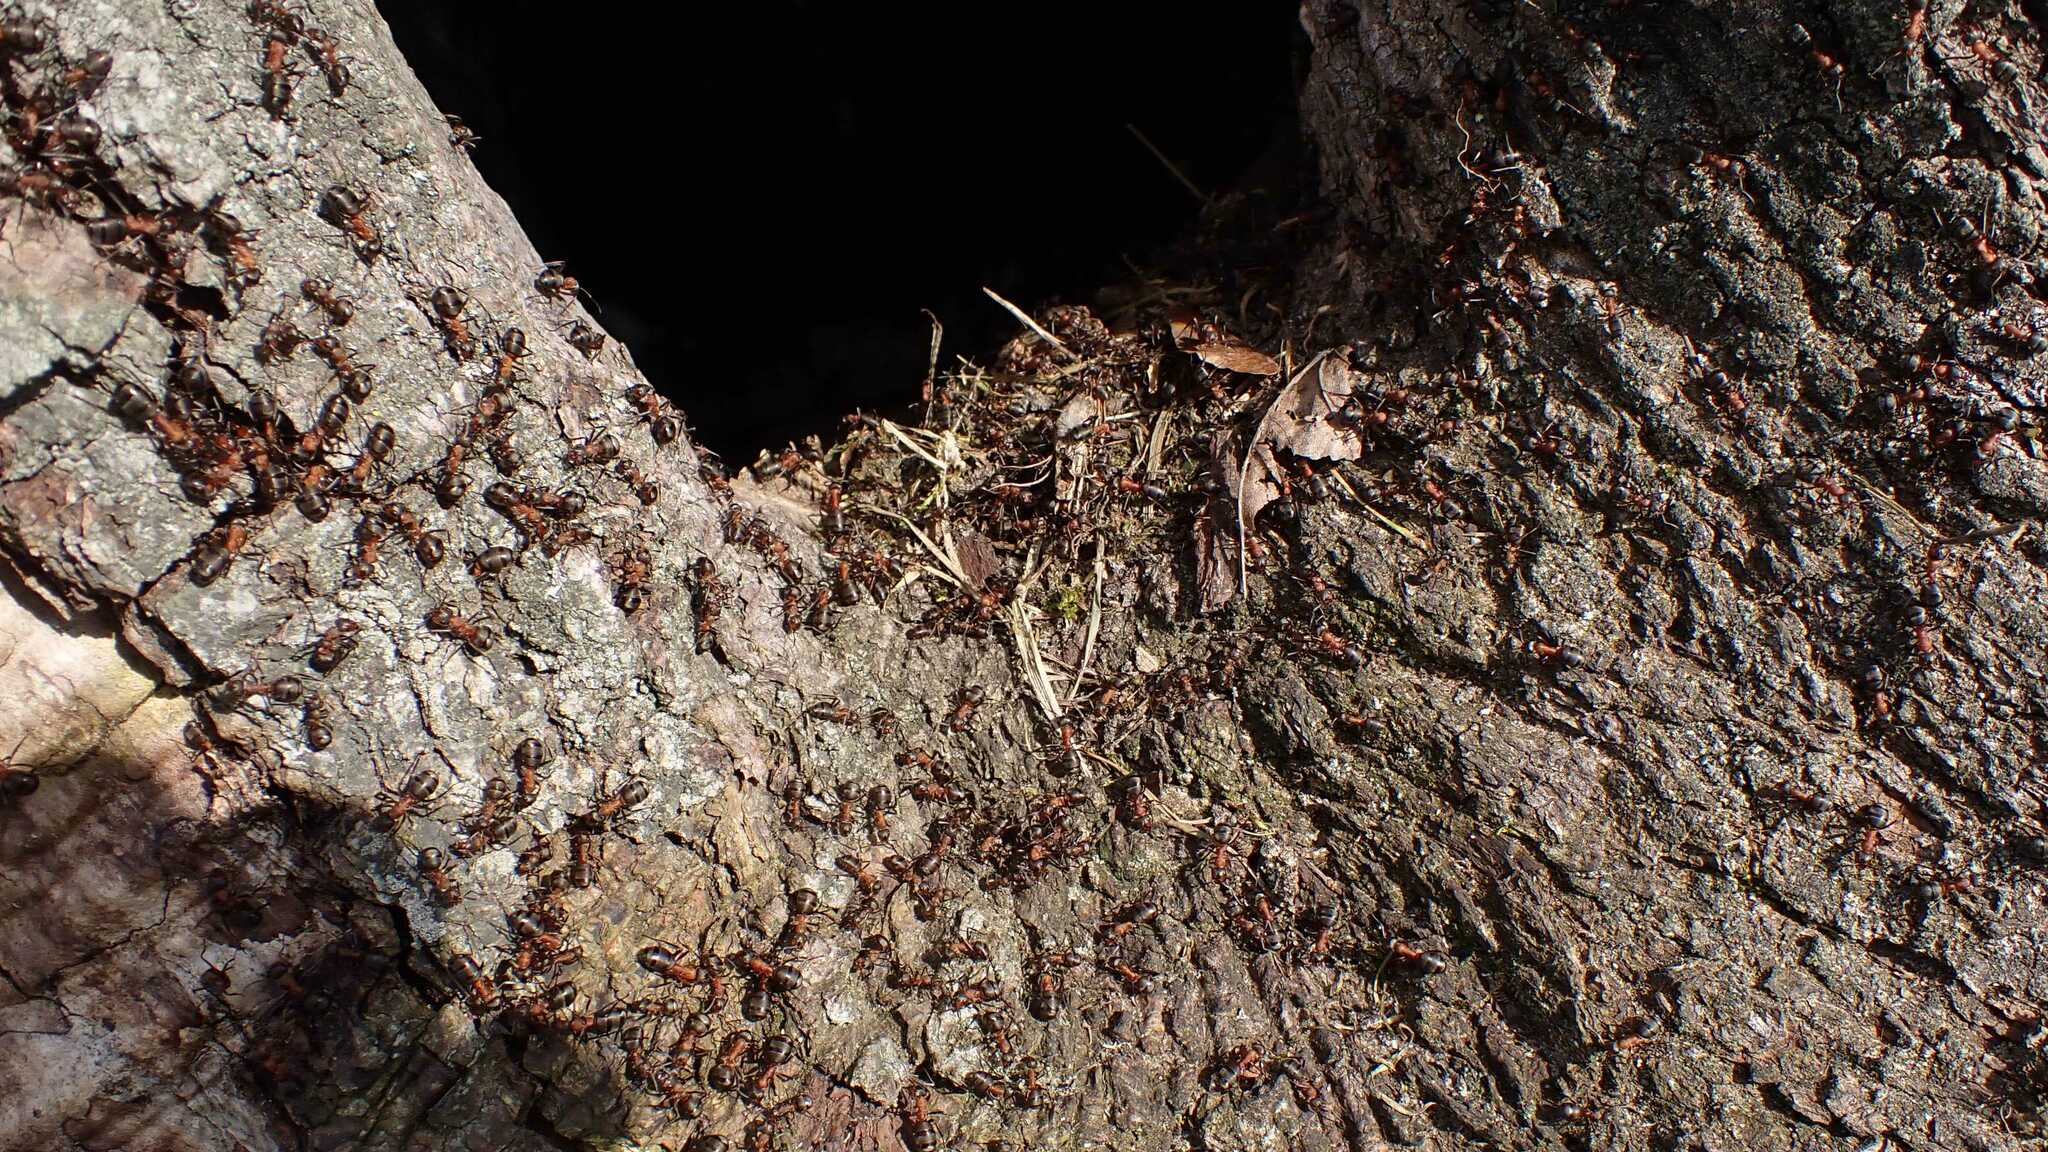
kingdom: Animalia
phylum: Arthropoda
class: Insecta
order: Hymenoptera
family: Formicidae
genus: Formica
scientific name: Formica
